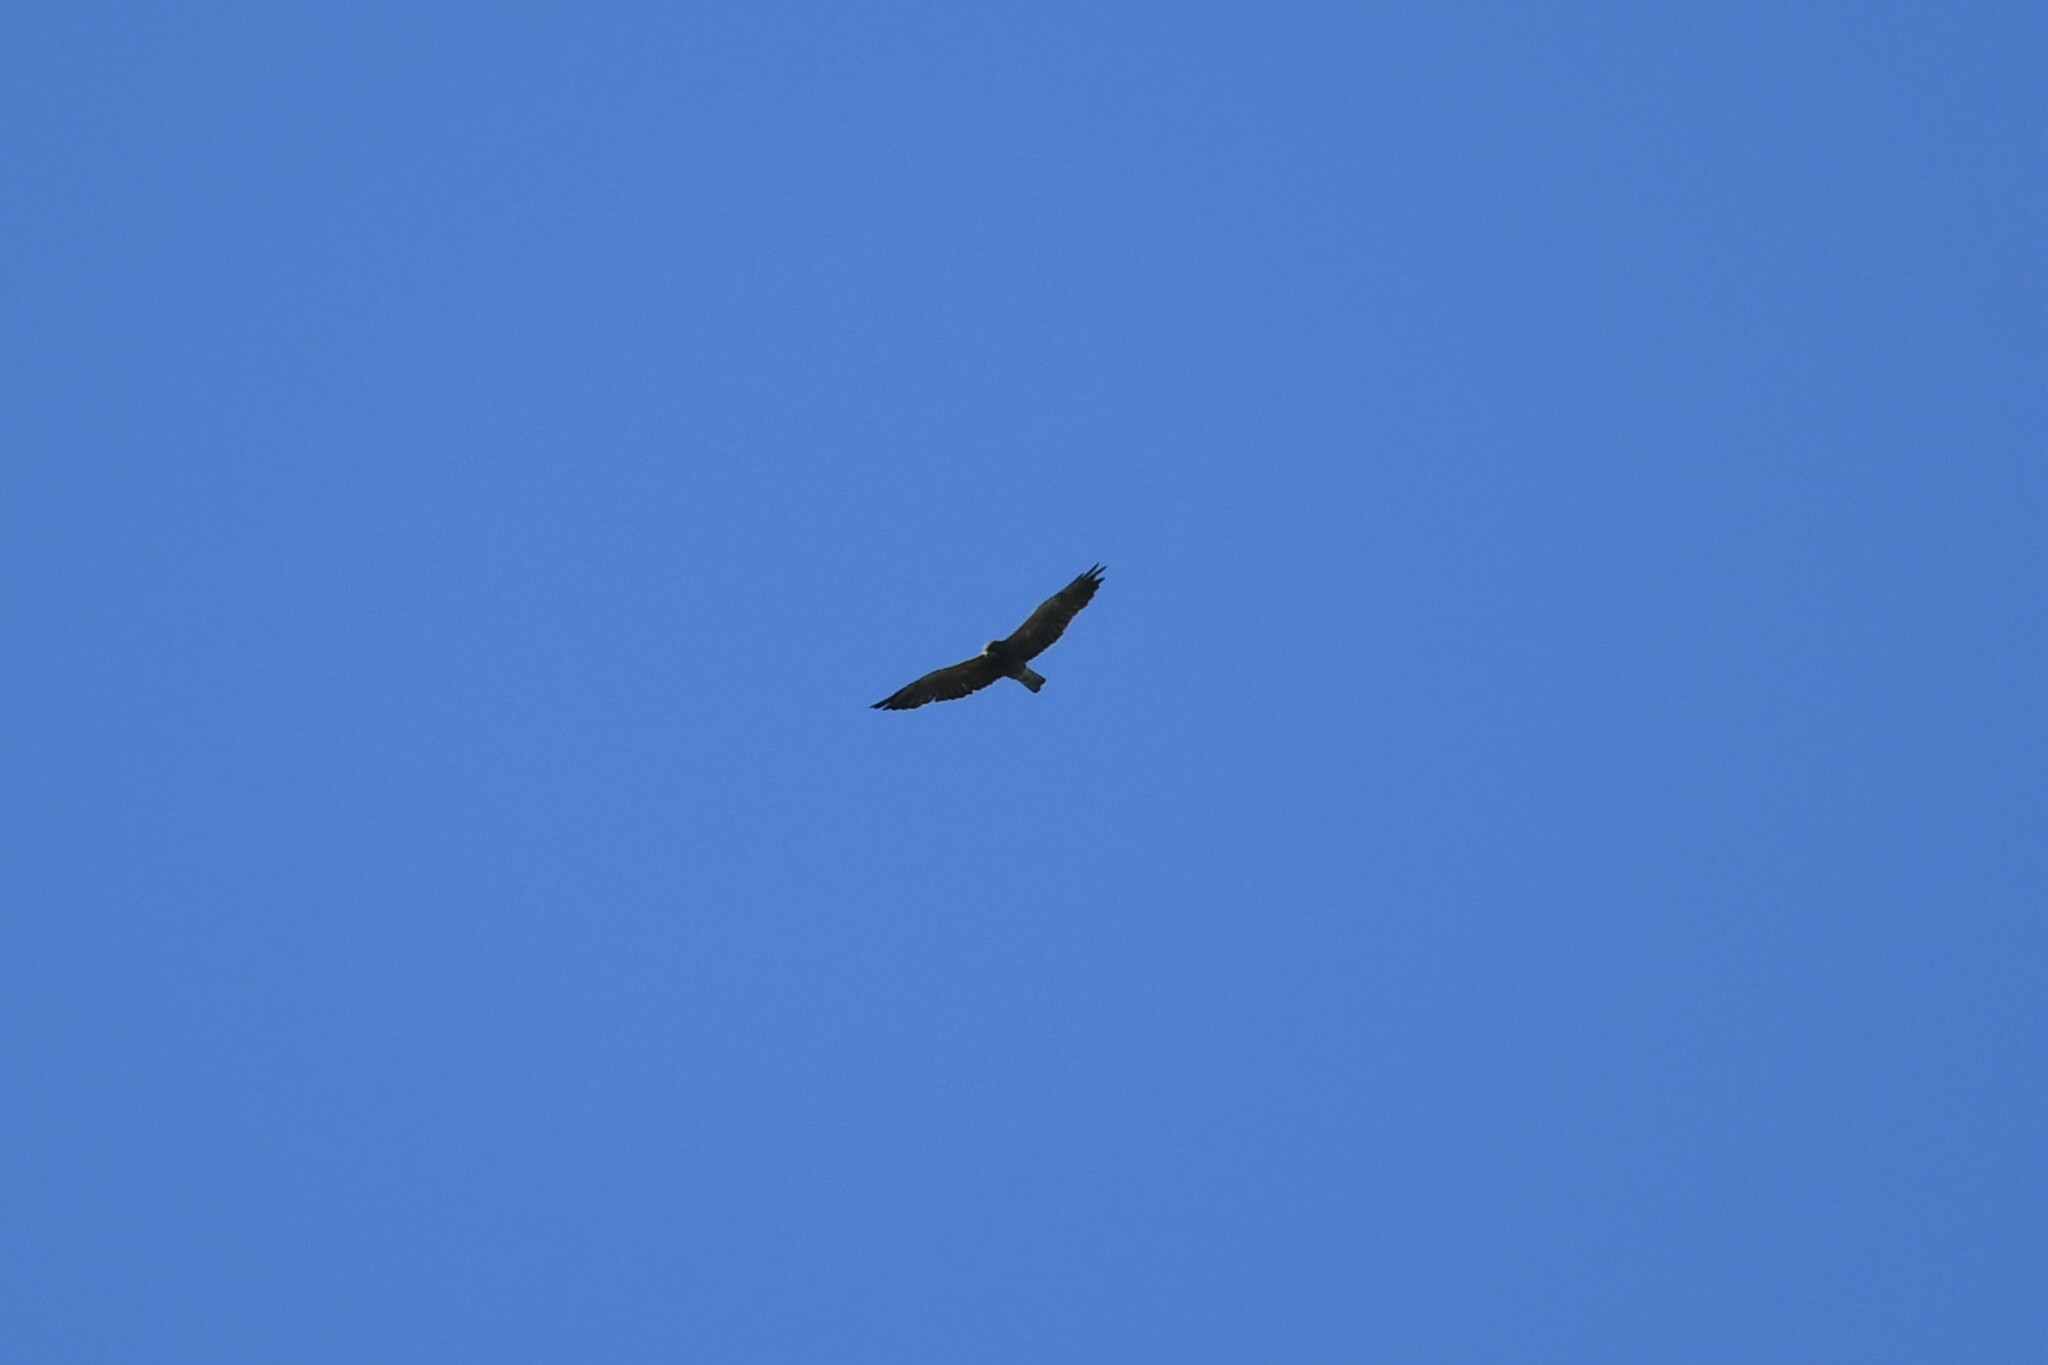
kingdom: Animalia
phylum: Chordata
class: Aves
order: Accipitriformes
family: Accipitridae
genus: Buteo
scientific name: Buteo swainsoni
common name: Swainson's hawk
